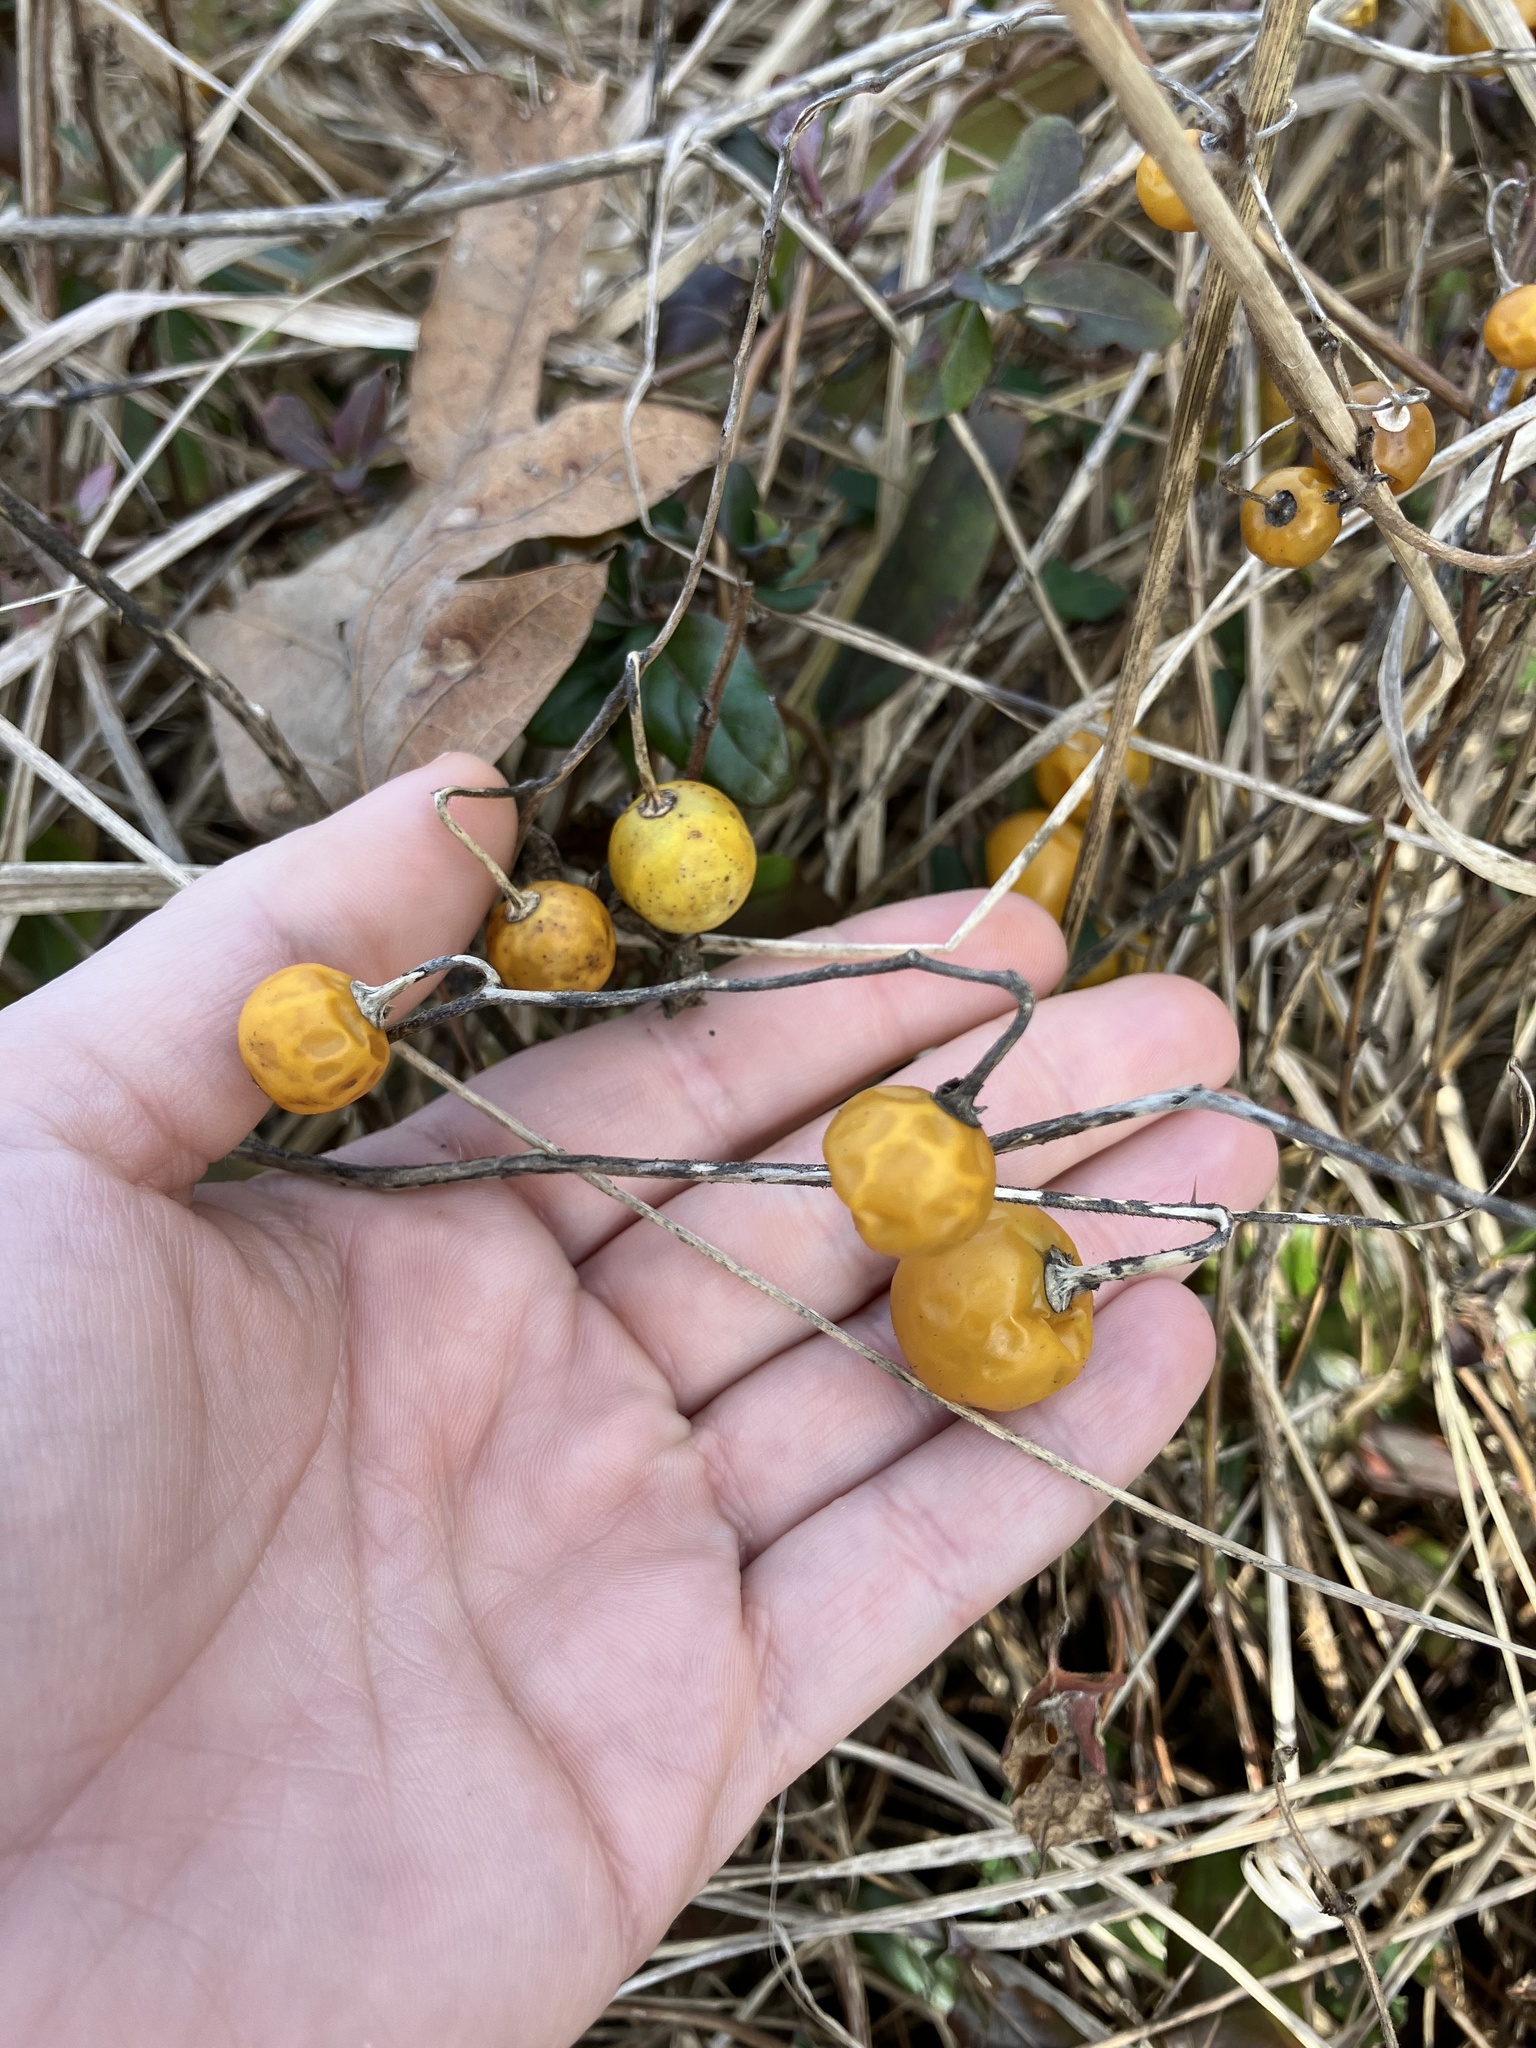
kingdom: Plantae
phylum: Tracheophyta
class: Magnoliopsida
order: Solanales
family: Solanaceae
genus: Solanum
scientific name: Solanum carolinense
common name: Horse-nettle
